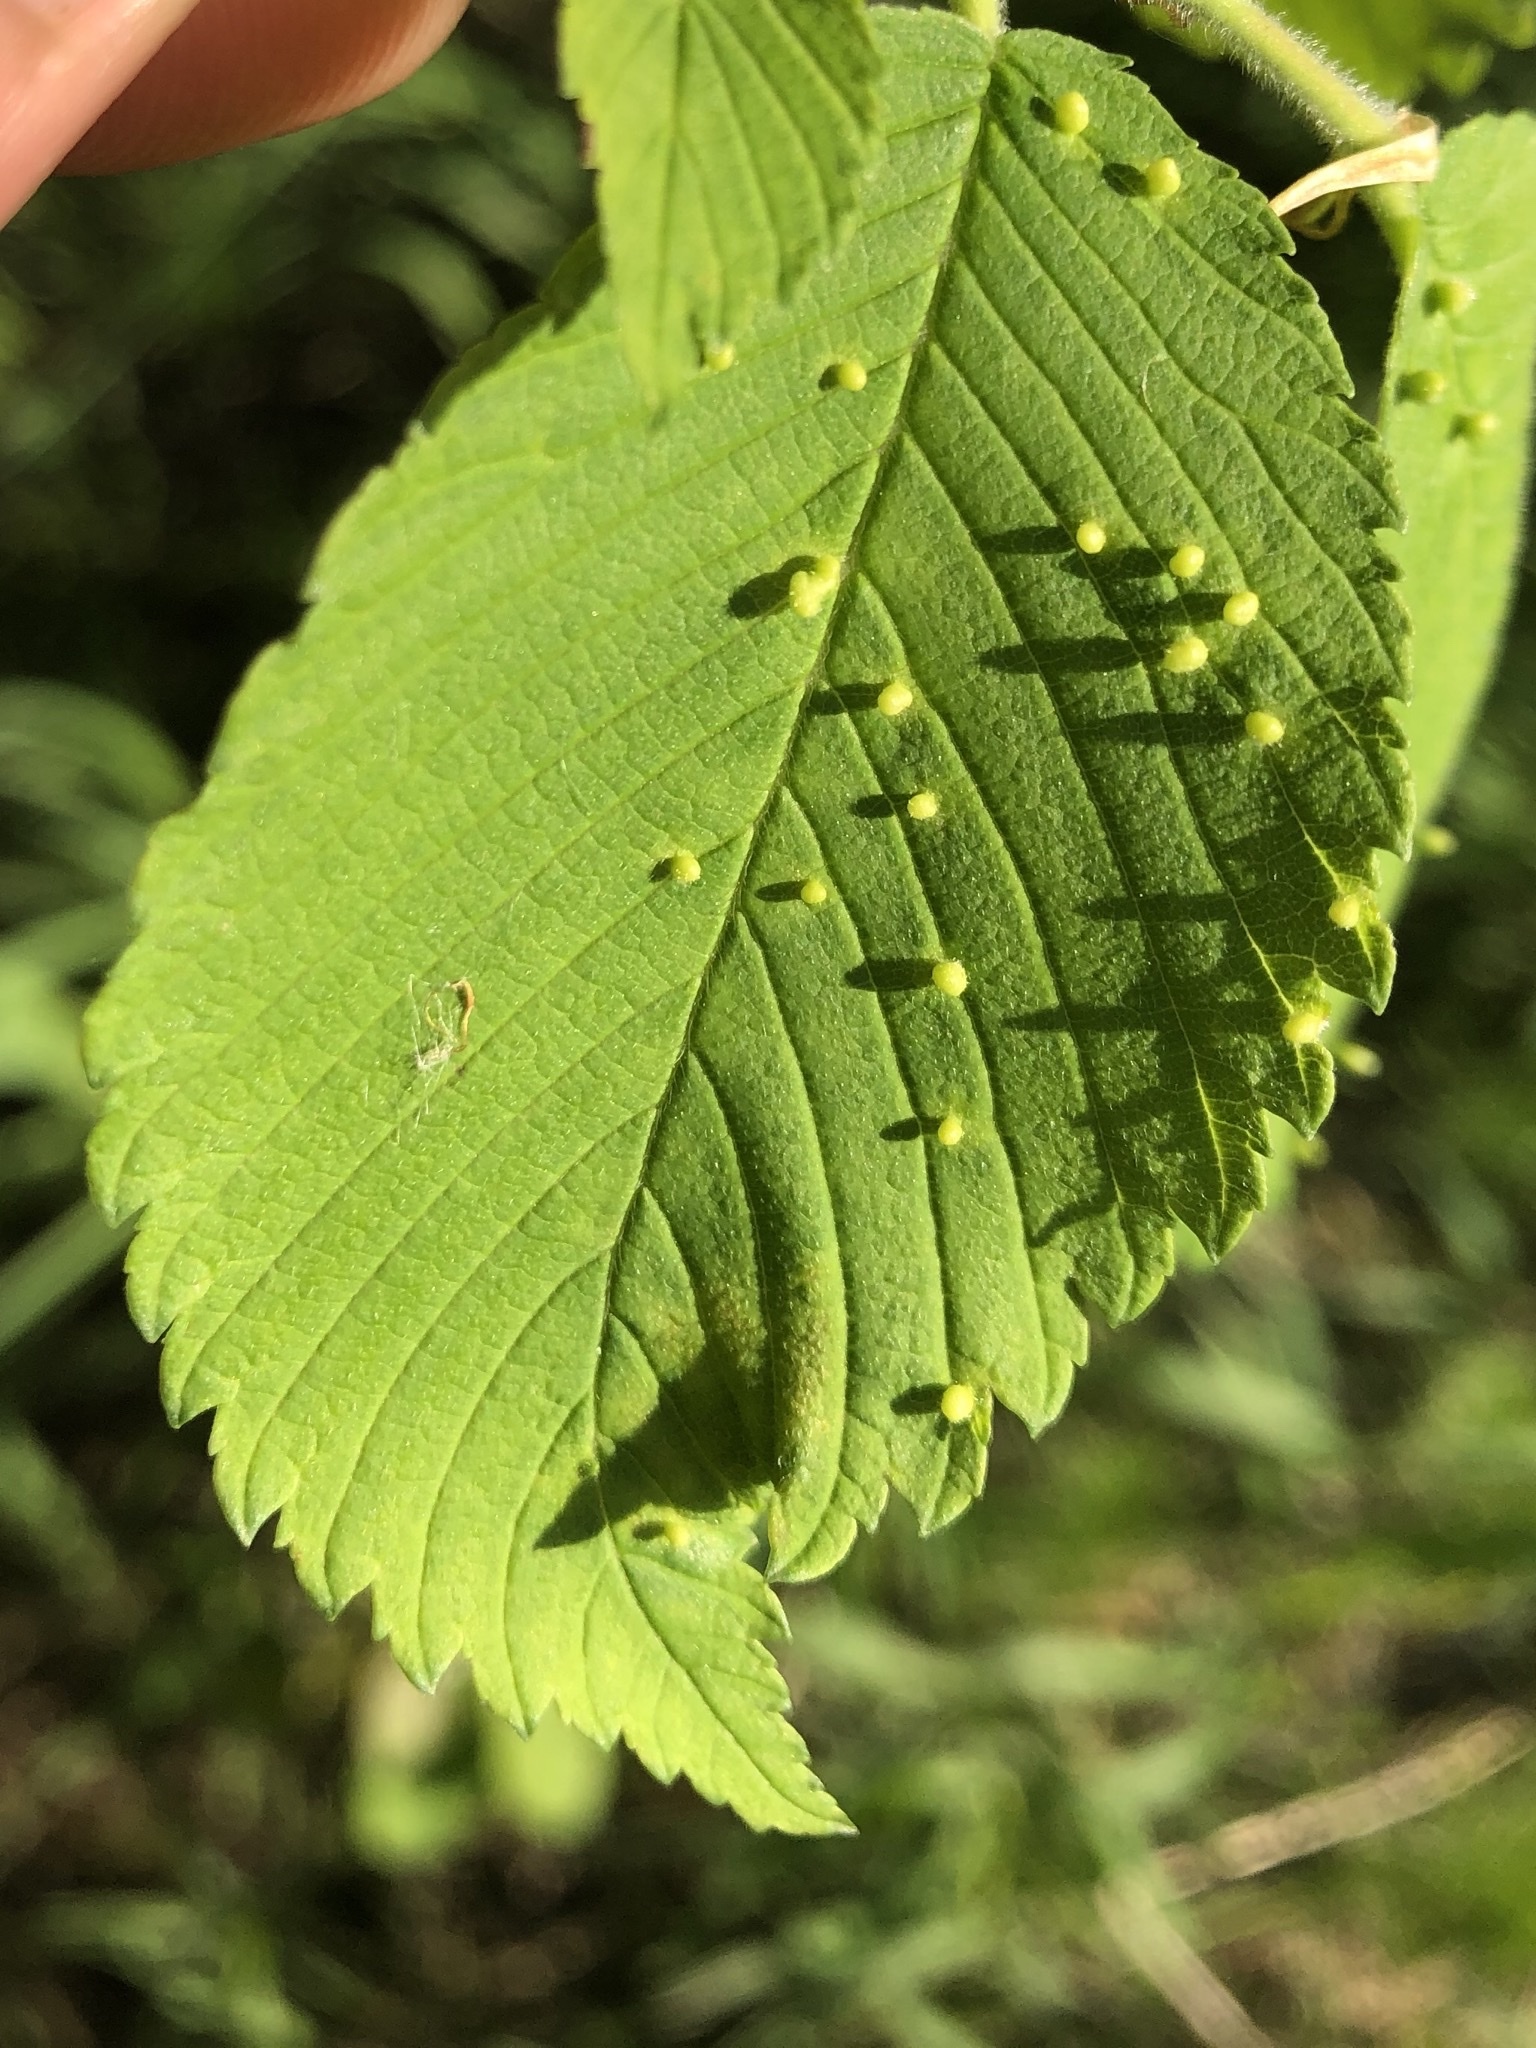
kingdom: Animalia
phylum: Arthropoda
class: Arachnida
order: Trombidiformes
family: Eriophyidae
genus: Aceria
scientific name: Aceria
